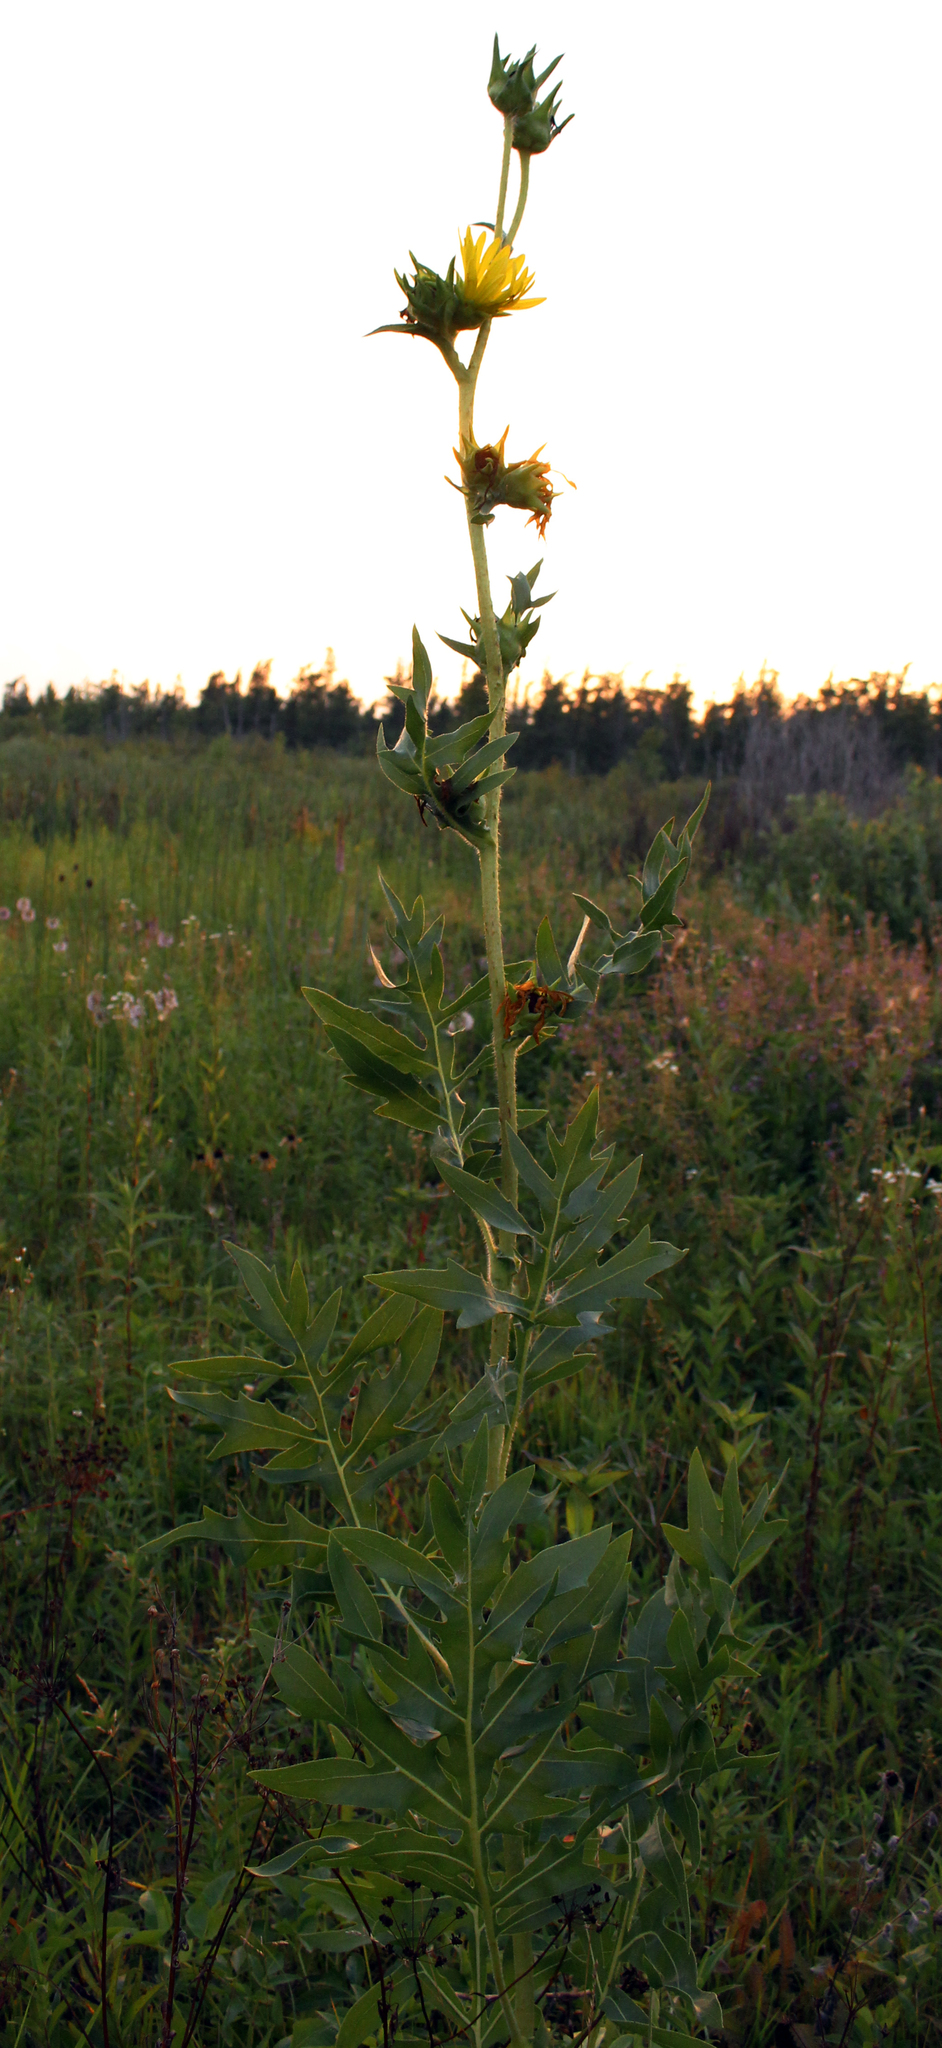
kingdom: Plantae
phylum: Tracheophyta
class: Magnoliopsida
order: Asterales
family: Asteraceae
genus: Silphium
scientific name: Silphium laciniatum
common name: Polarplant
